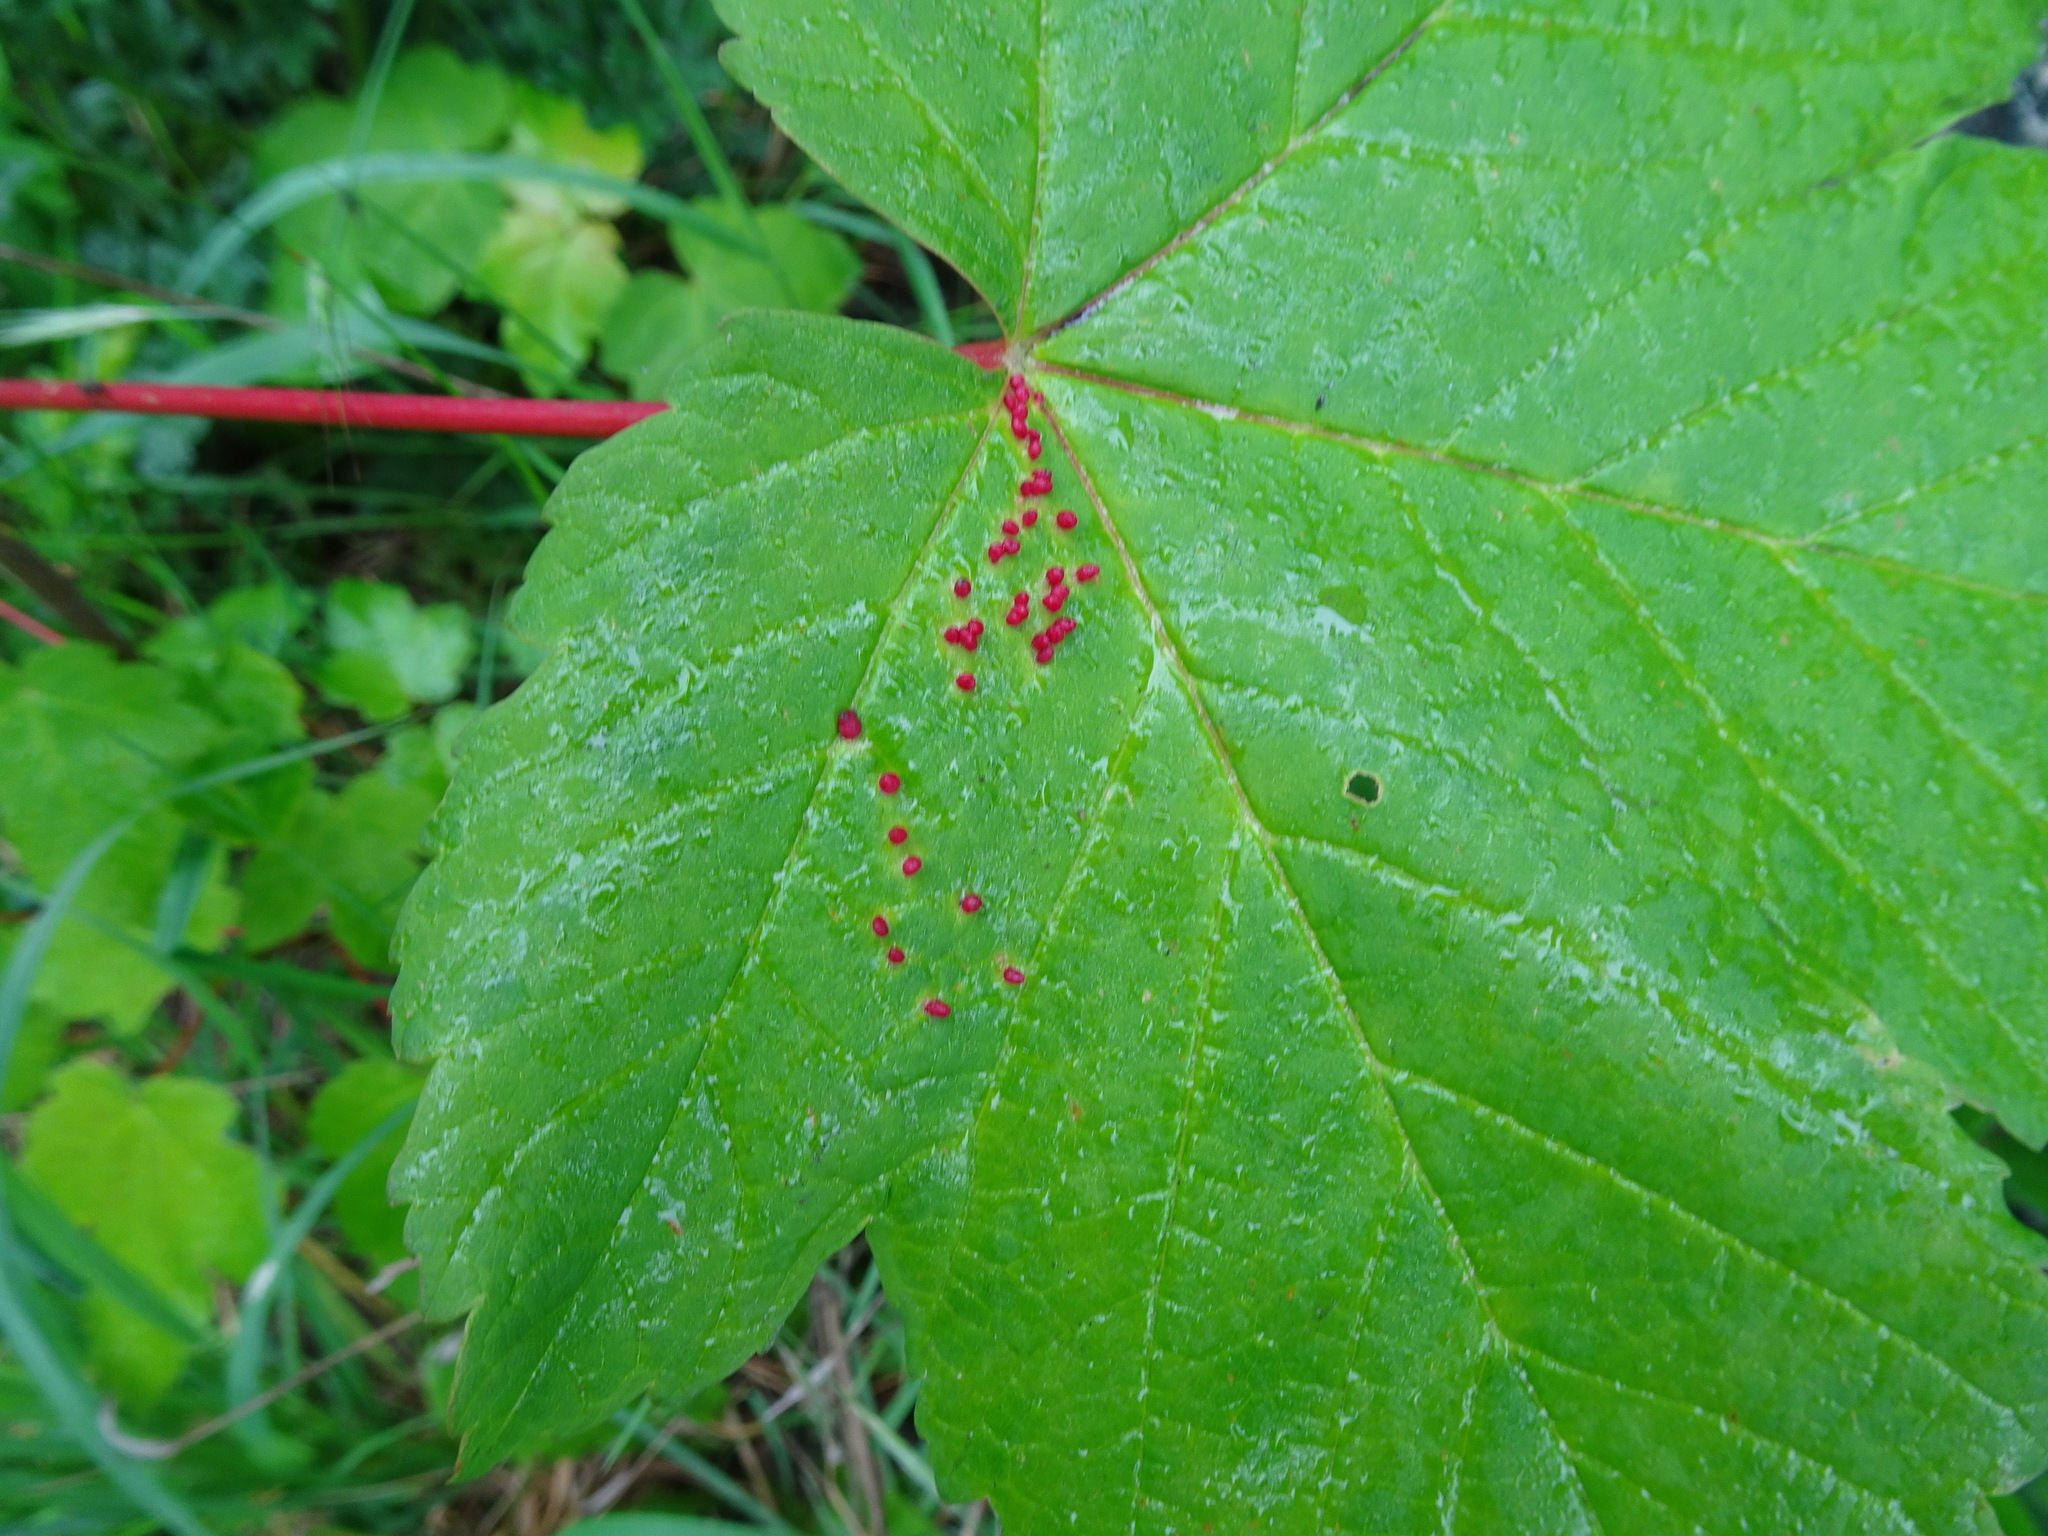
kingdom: Animalia
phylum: Arthropoda
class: Arachnida
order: Trombidiformes
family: Eriophyidae
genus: Aceria
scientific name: Aceria cephaloneus
